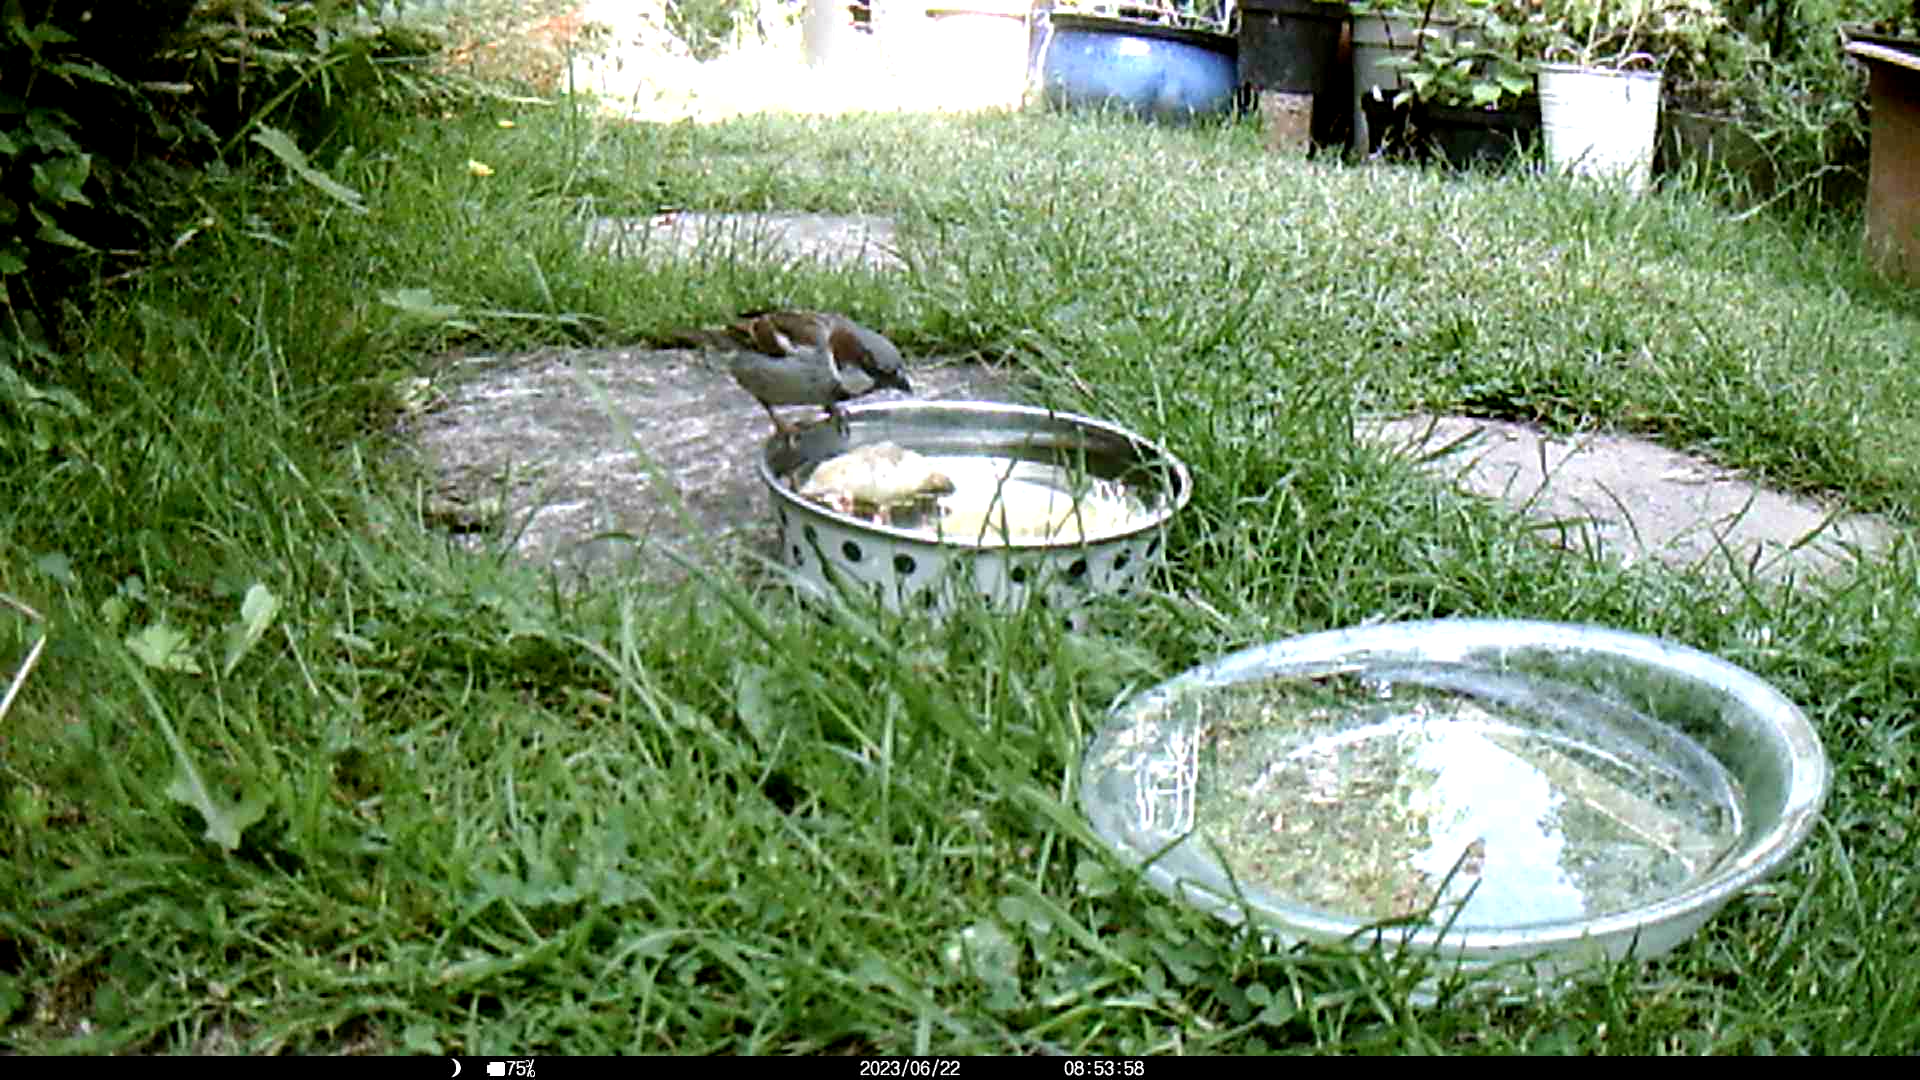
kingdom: Animalia
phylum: Chordata
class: Aves
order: Passeriformes
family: Passeridae
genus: Passer
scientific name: Passer domesticus
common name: House sparrow
